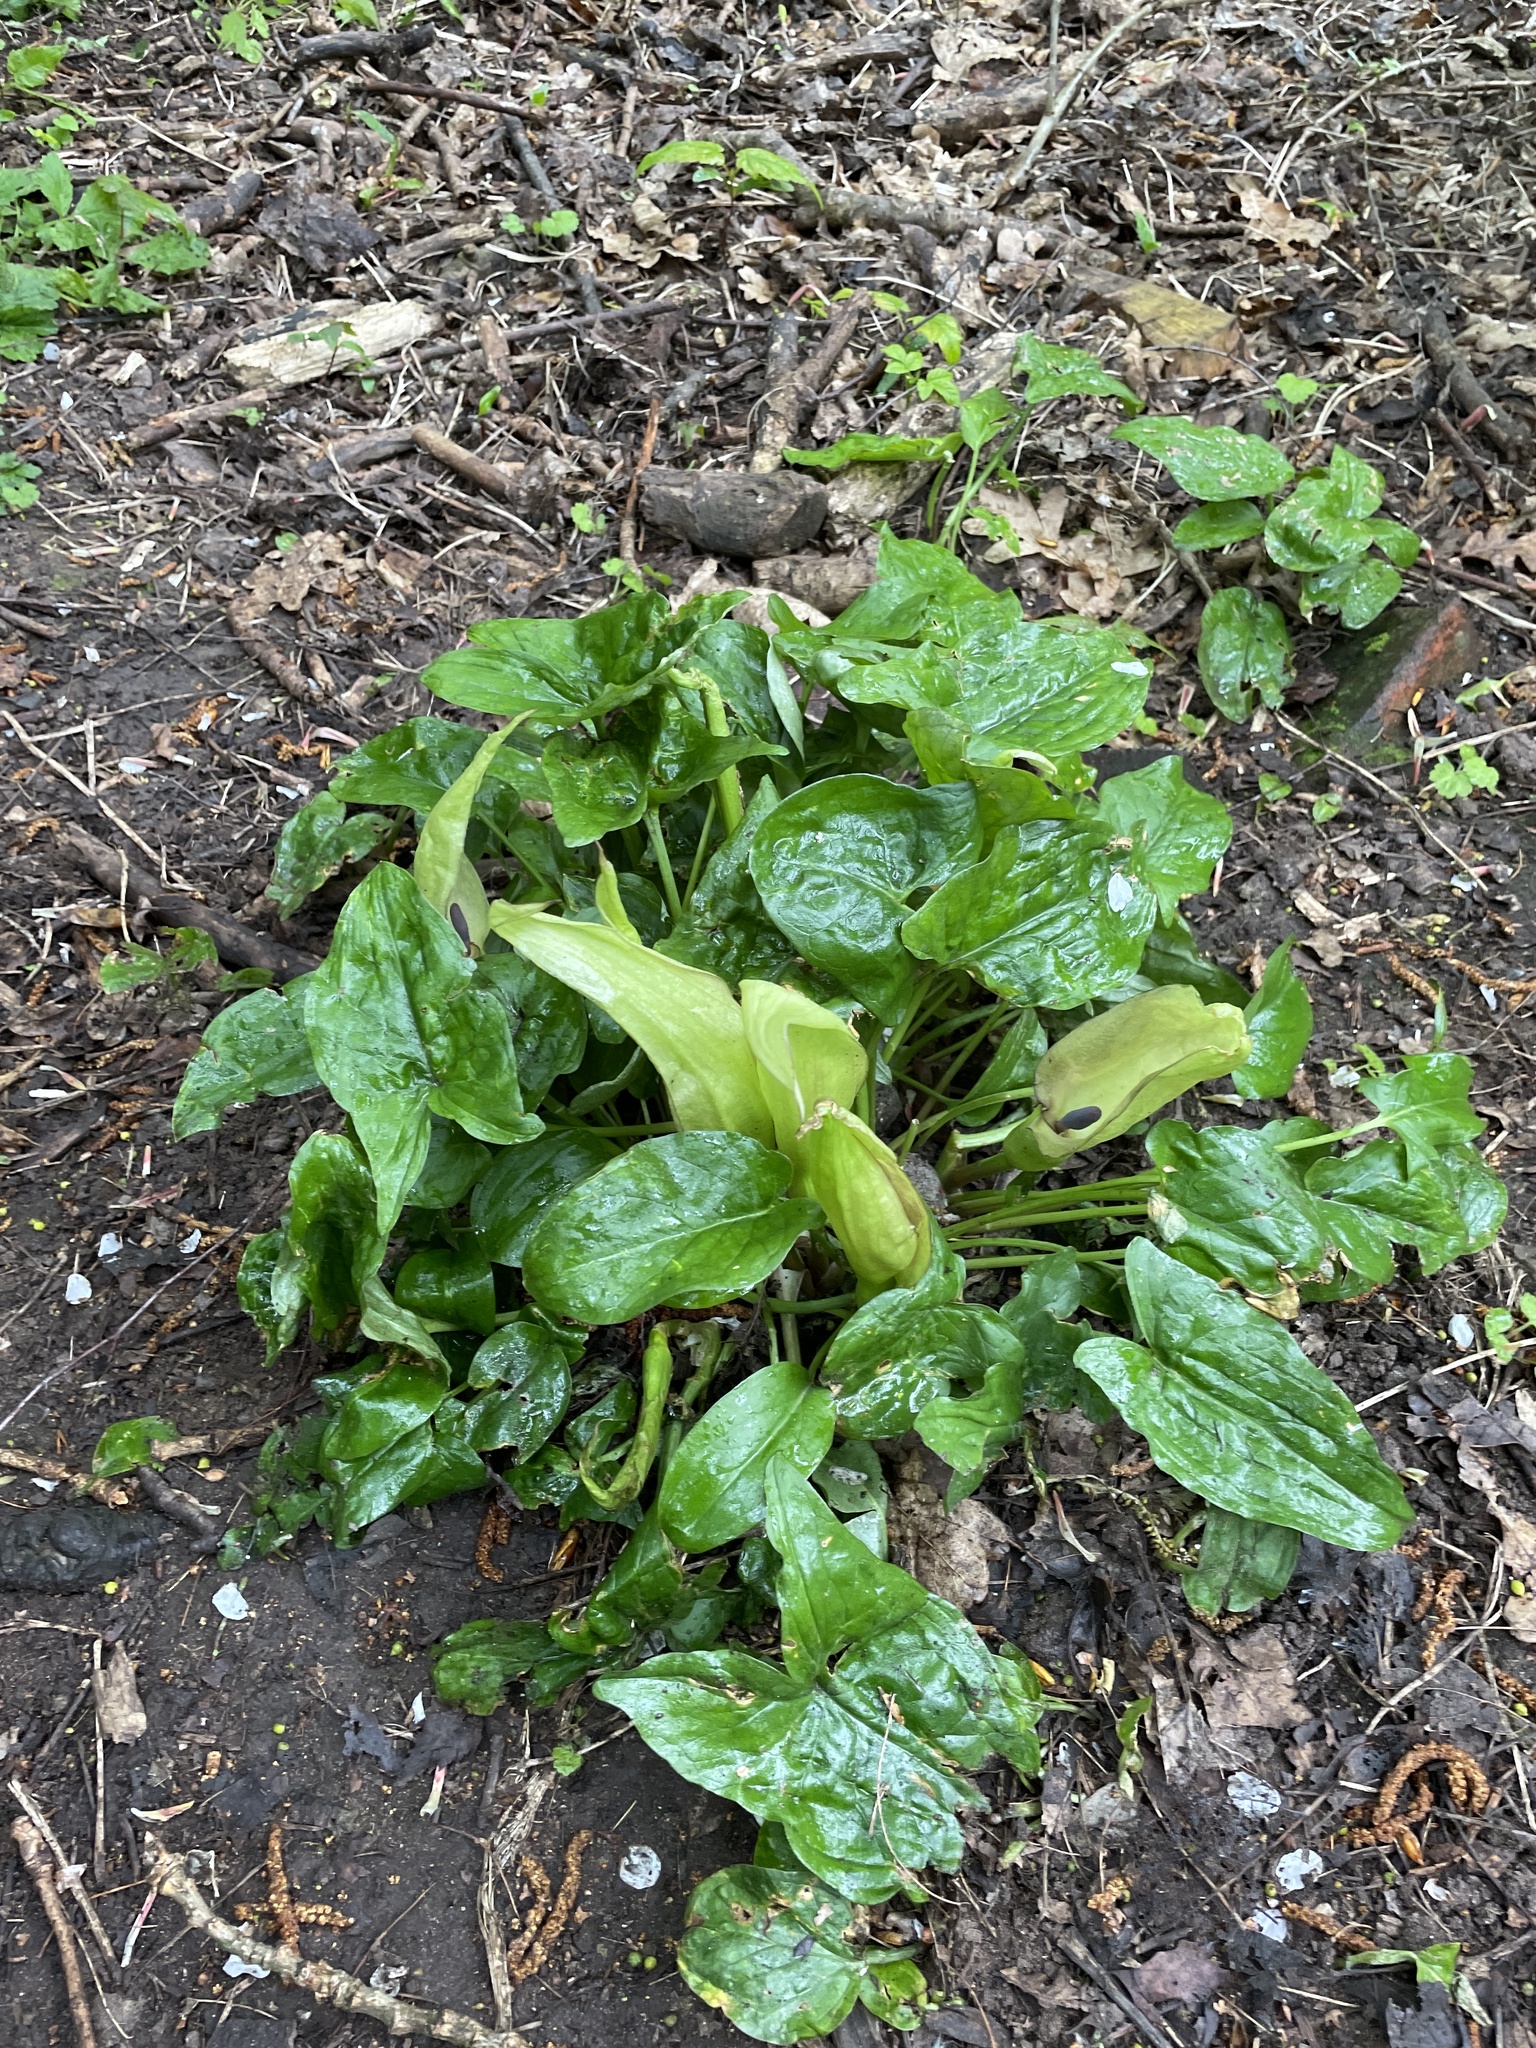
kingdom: Plantae
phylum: Tracheophyta
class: Liliopsida
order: Alismatales
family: Araceae
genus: Arum
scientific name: Arum maculatum
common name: Lords-and-ladies
